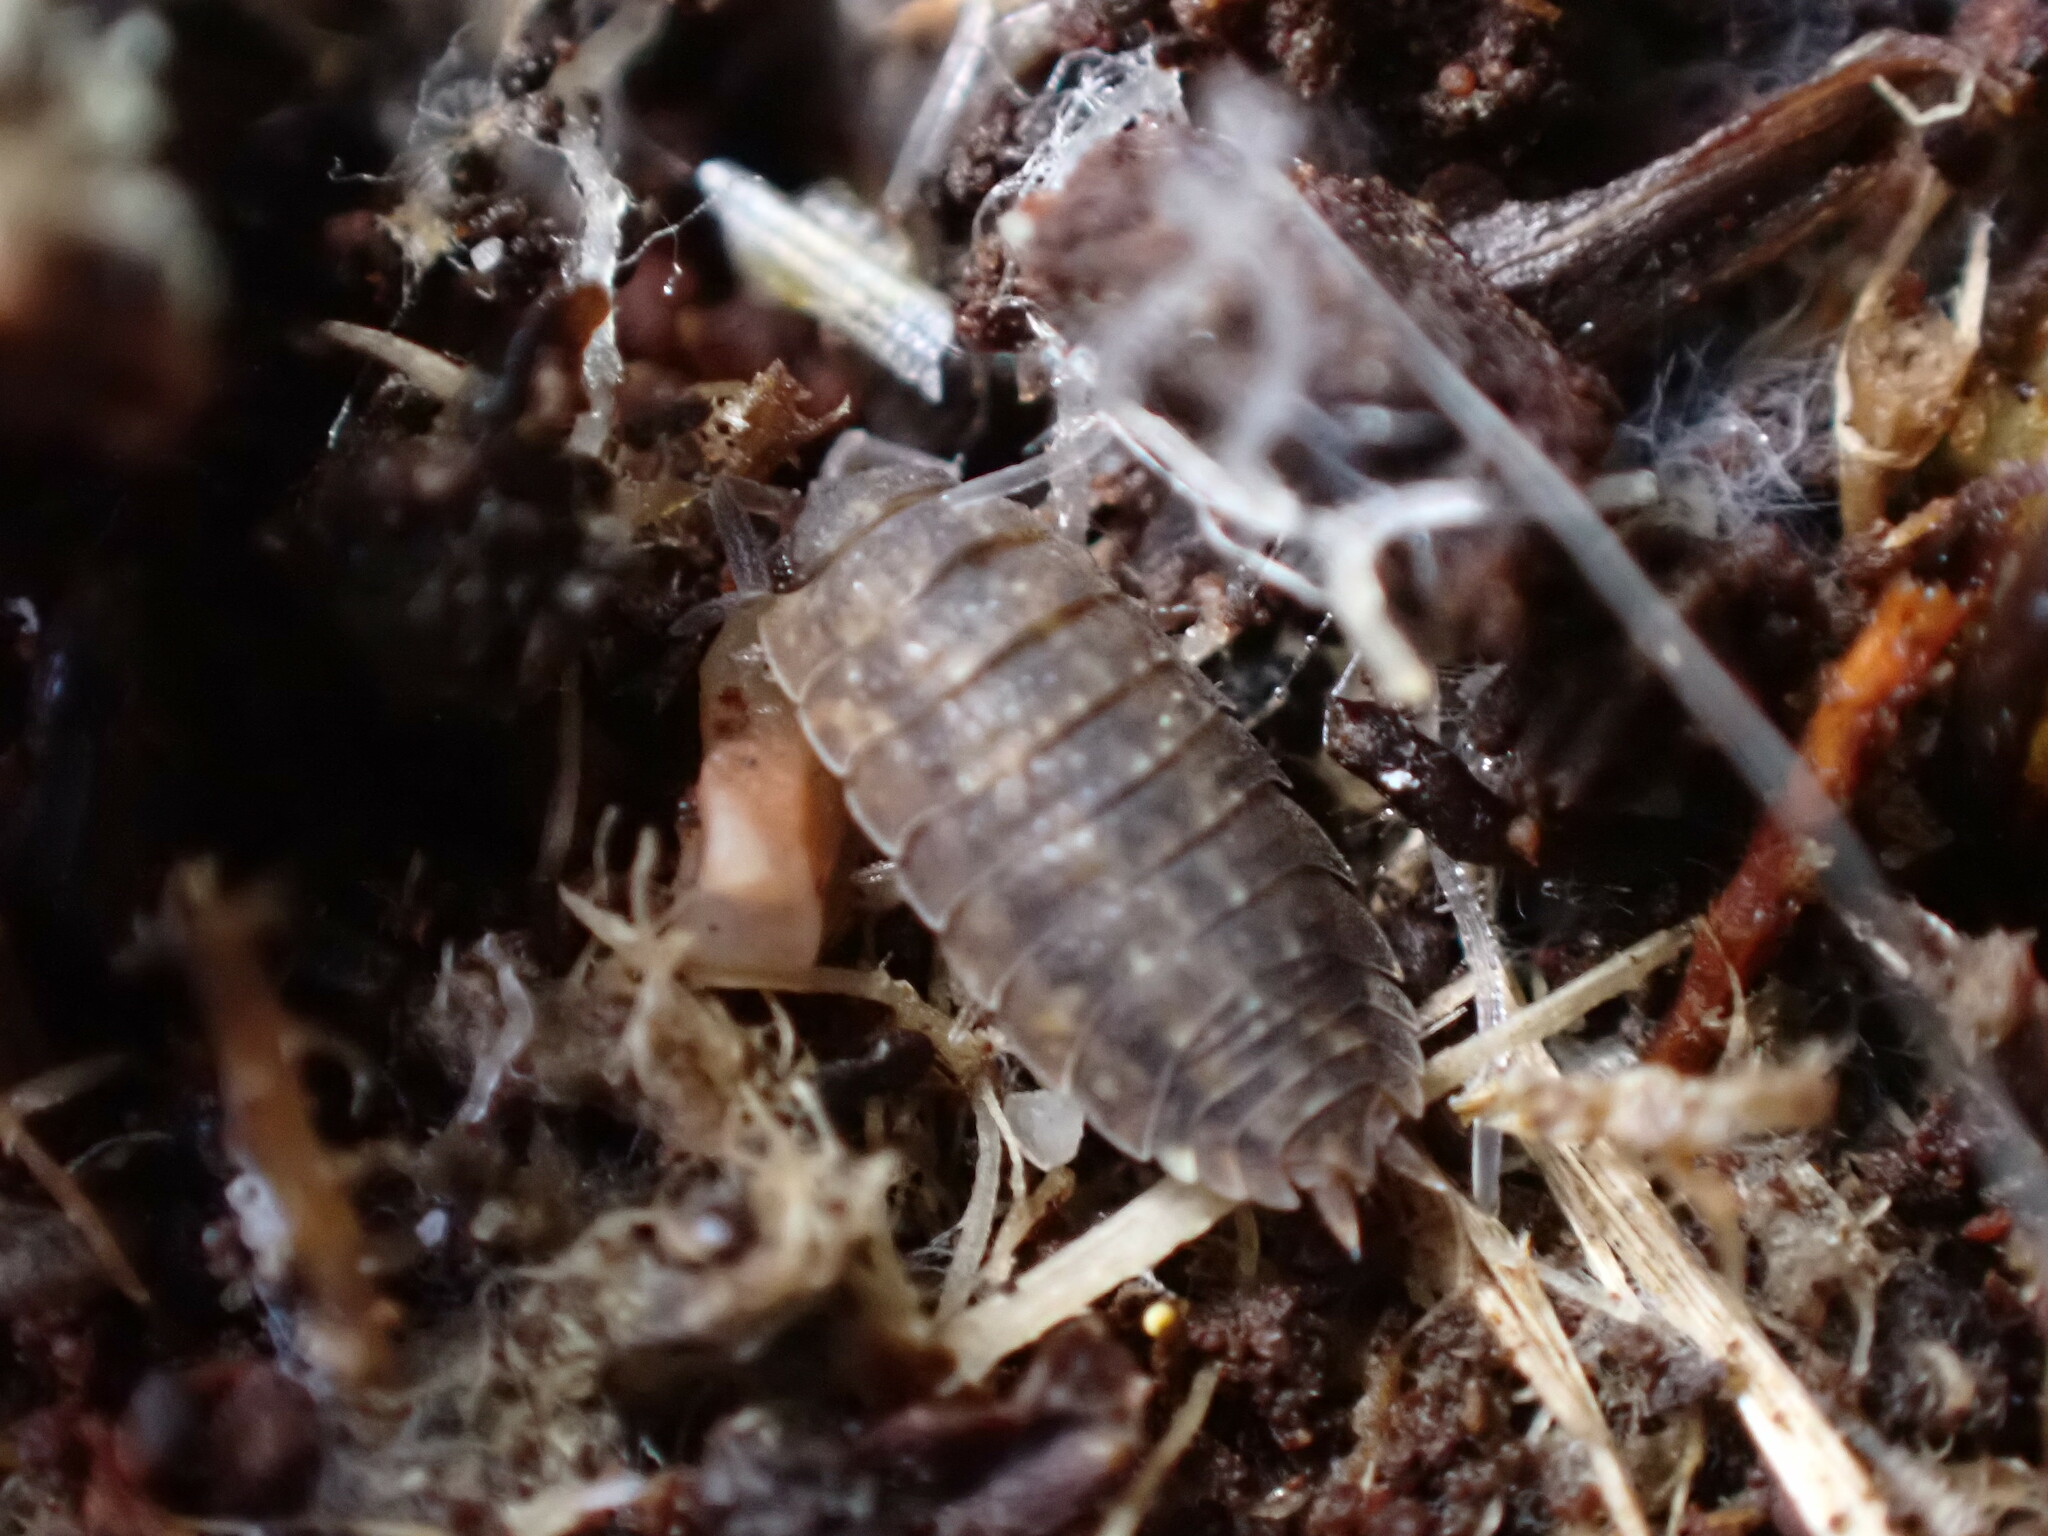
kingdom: Animalia
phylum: Arthropoda
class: Malacostraca
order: Isopoda
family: Porcellionidae
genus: Porcellio
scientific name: Porcellio scaber
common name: Common rough woodlouse
